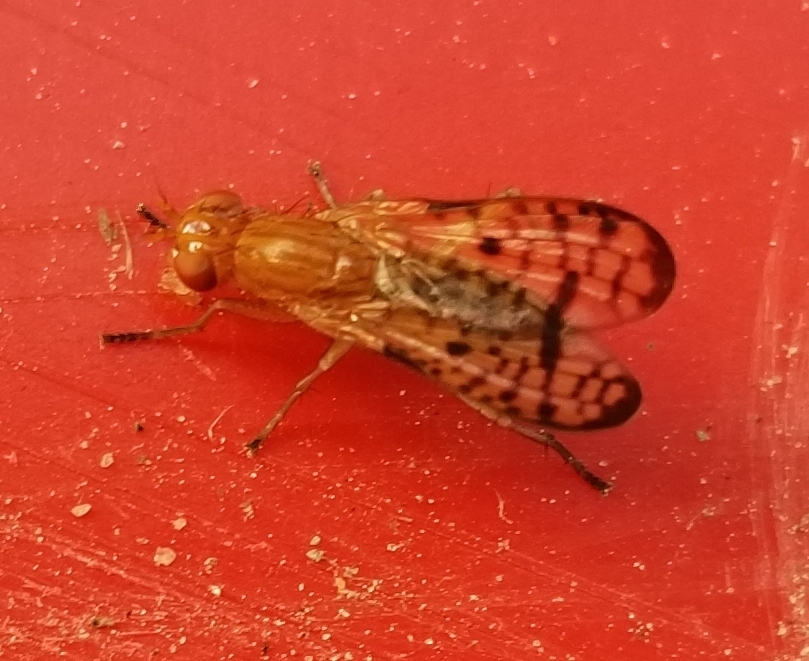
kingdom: Animalia
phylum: Arthropoda
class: Insecta
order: Diptera
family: Sciomyzidae
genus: Tetanocera
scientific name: Tetanocera valida
